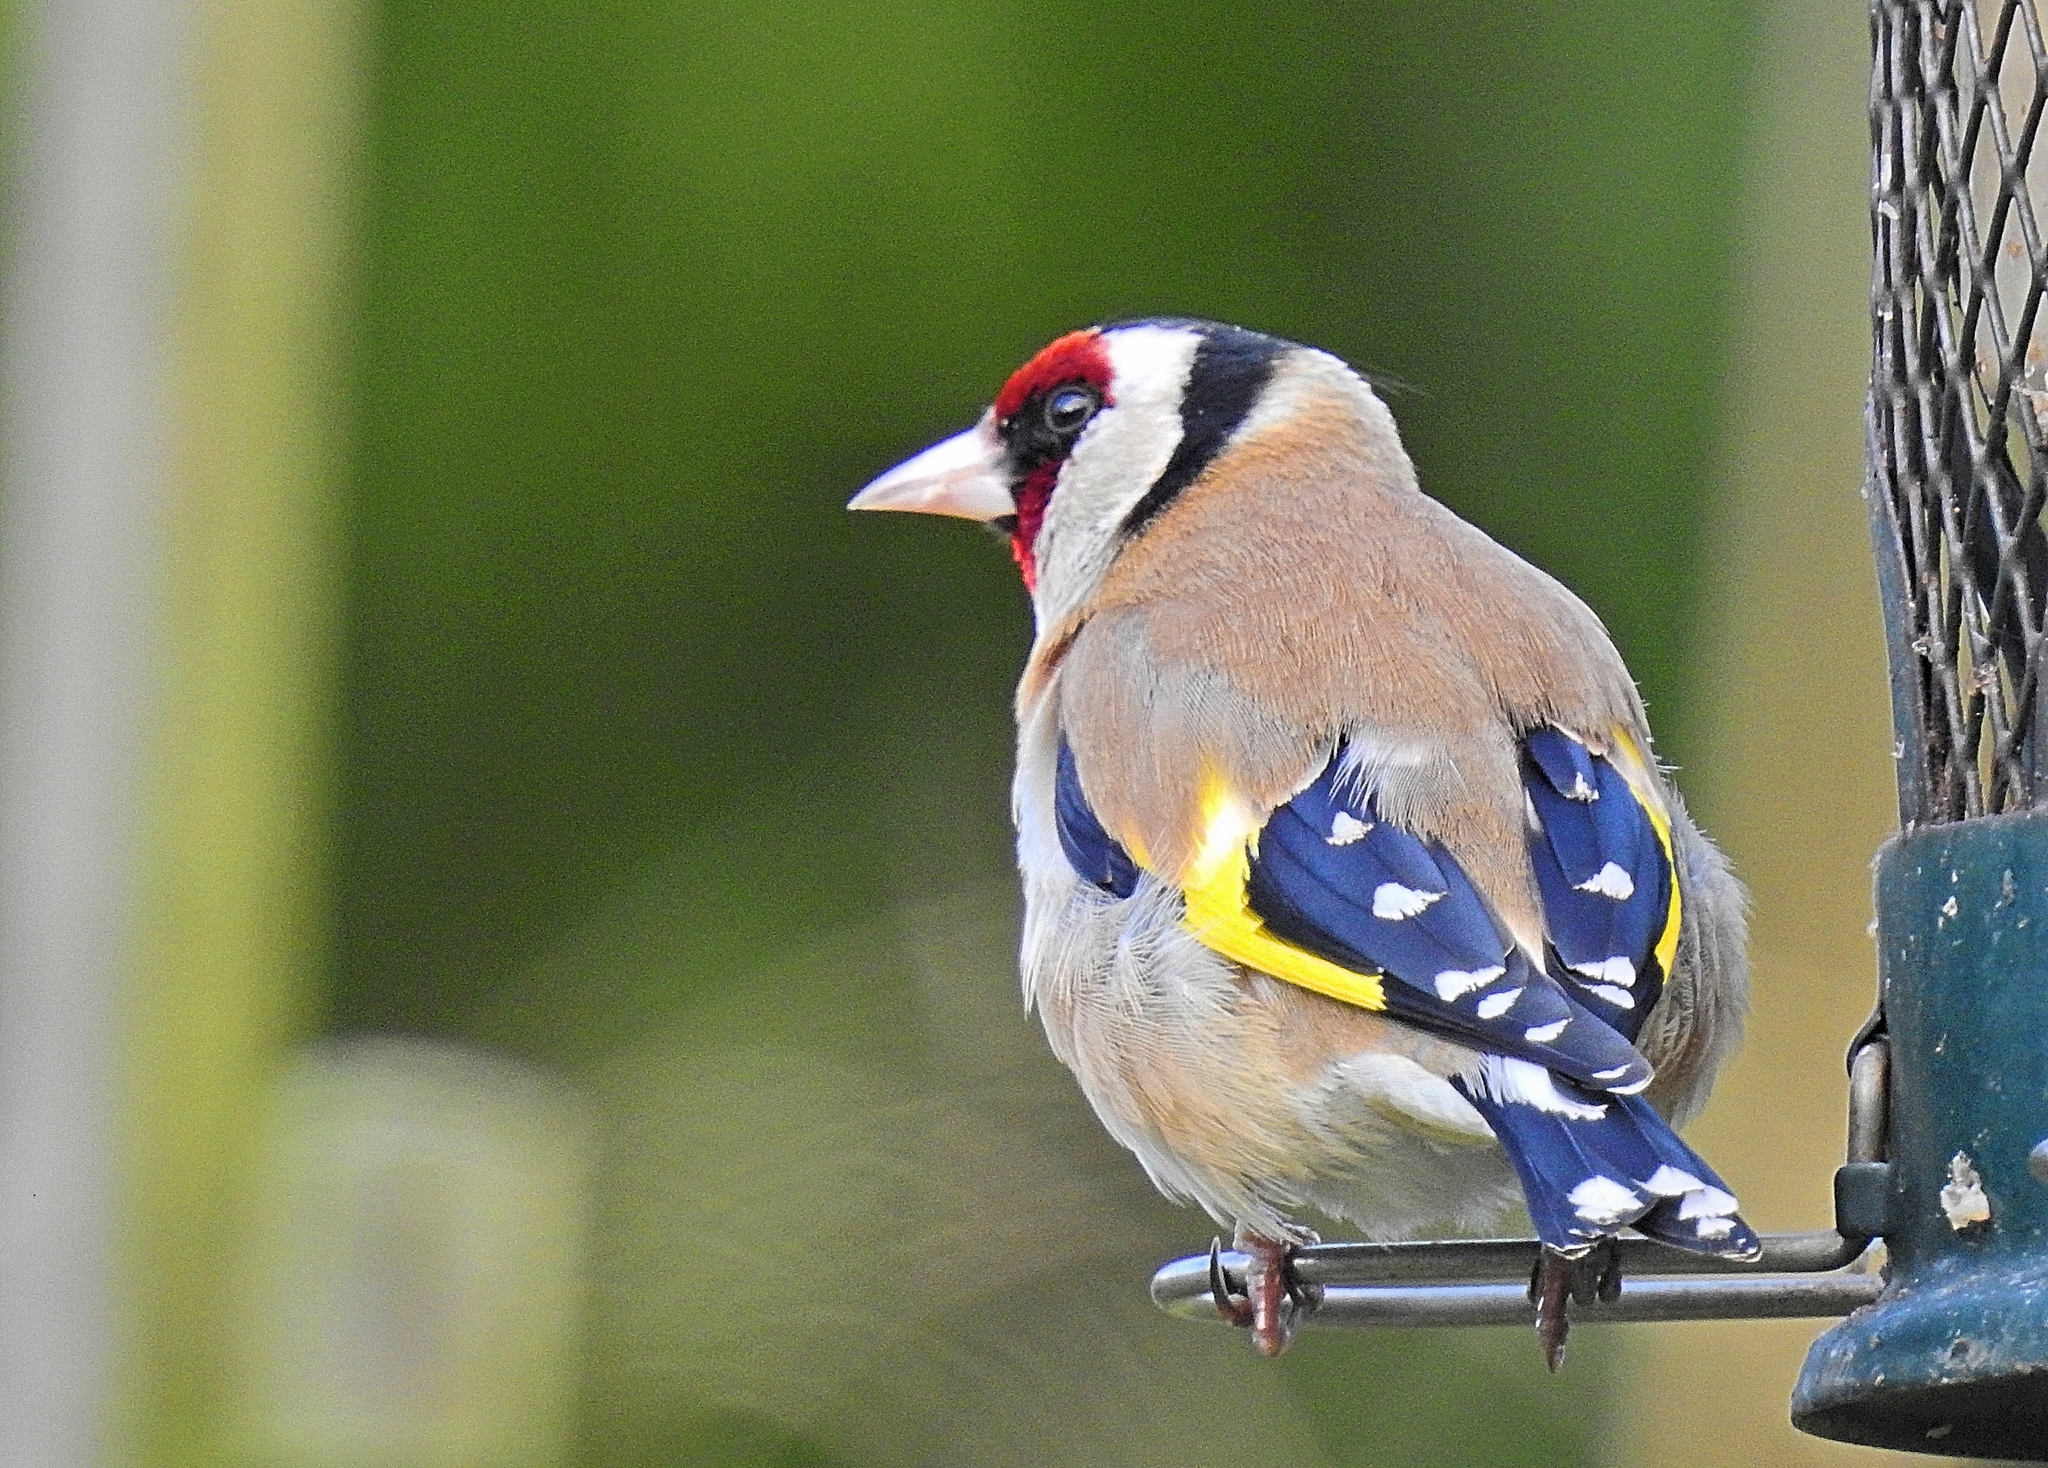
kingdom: Animalia
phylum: Chordata
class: Aves
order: Passeriformes
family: Fringillidae
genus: Carduelis
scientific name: Carduelis carduelis
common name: European goldfinch
